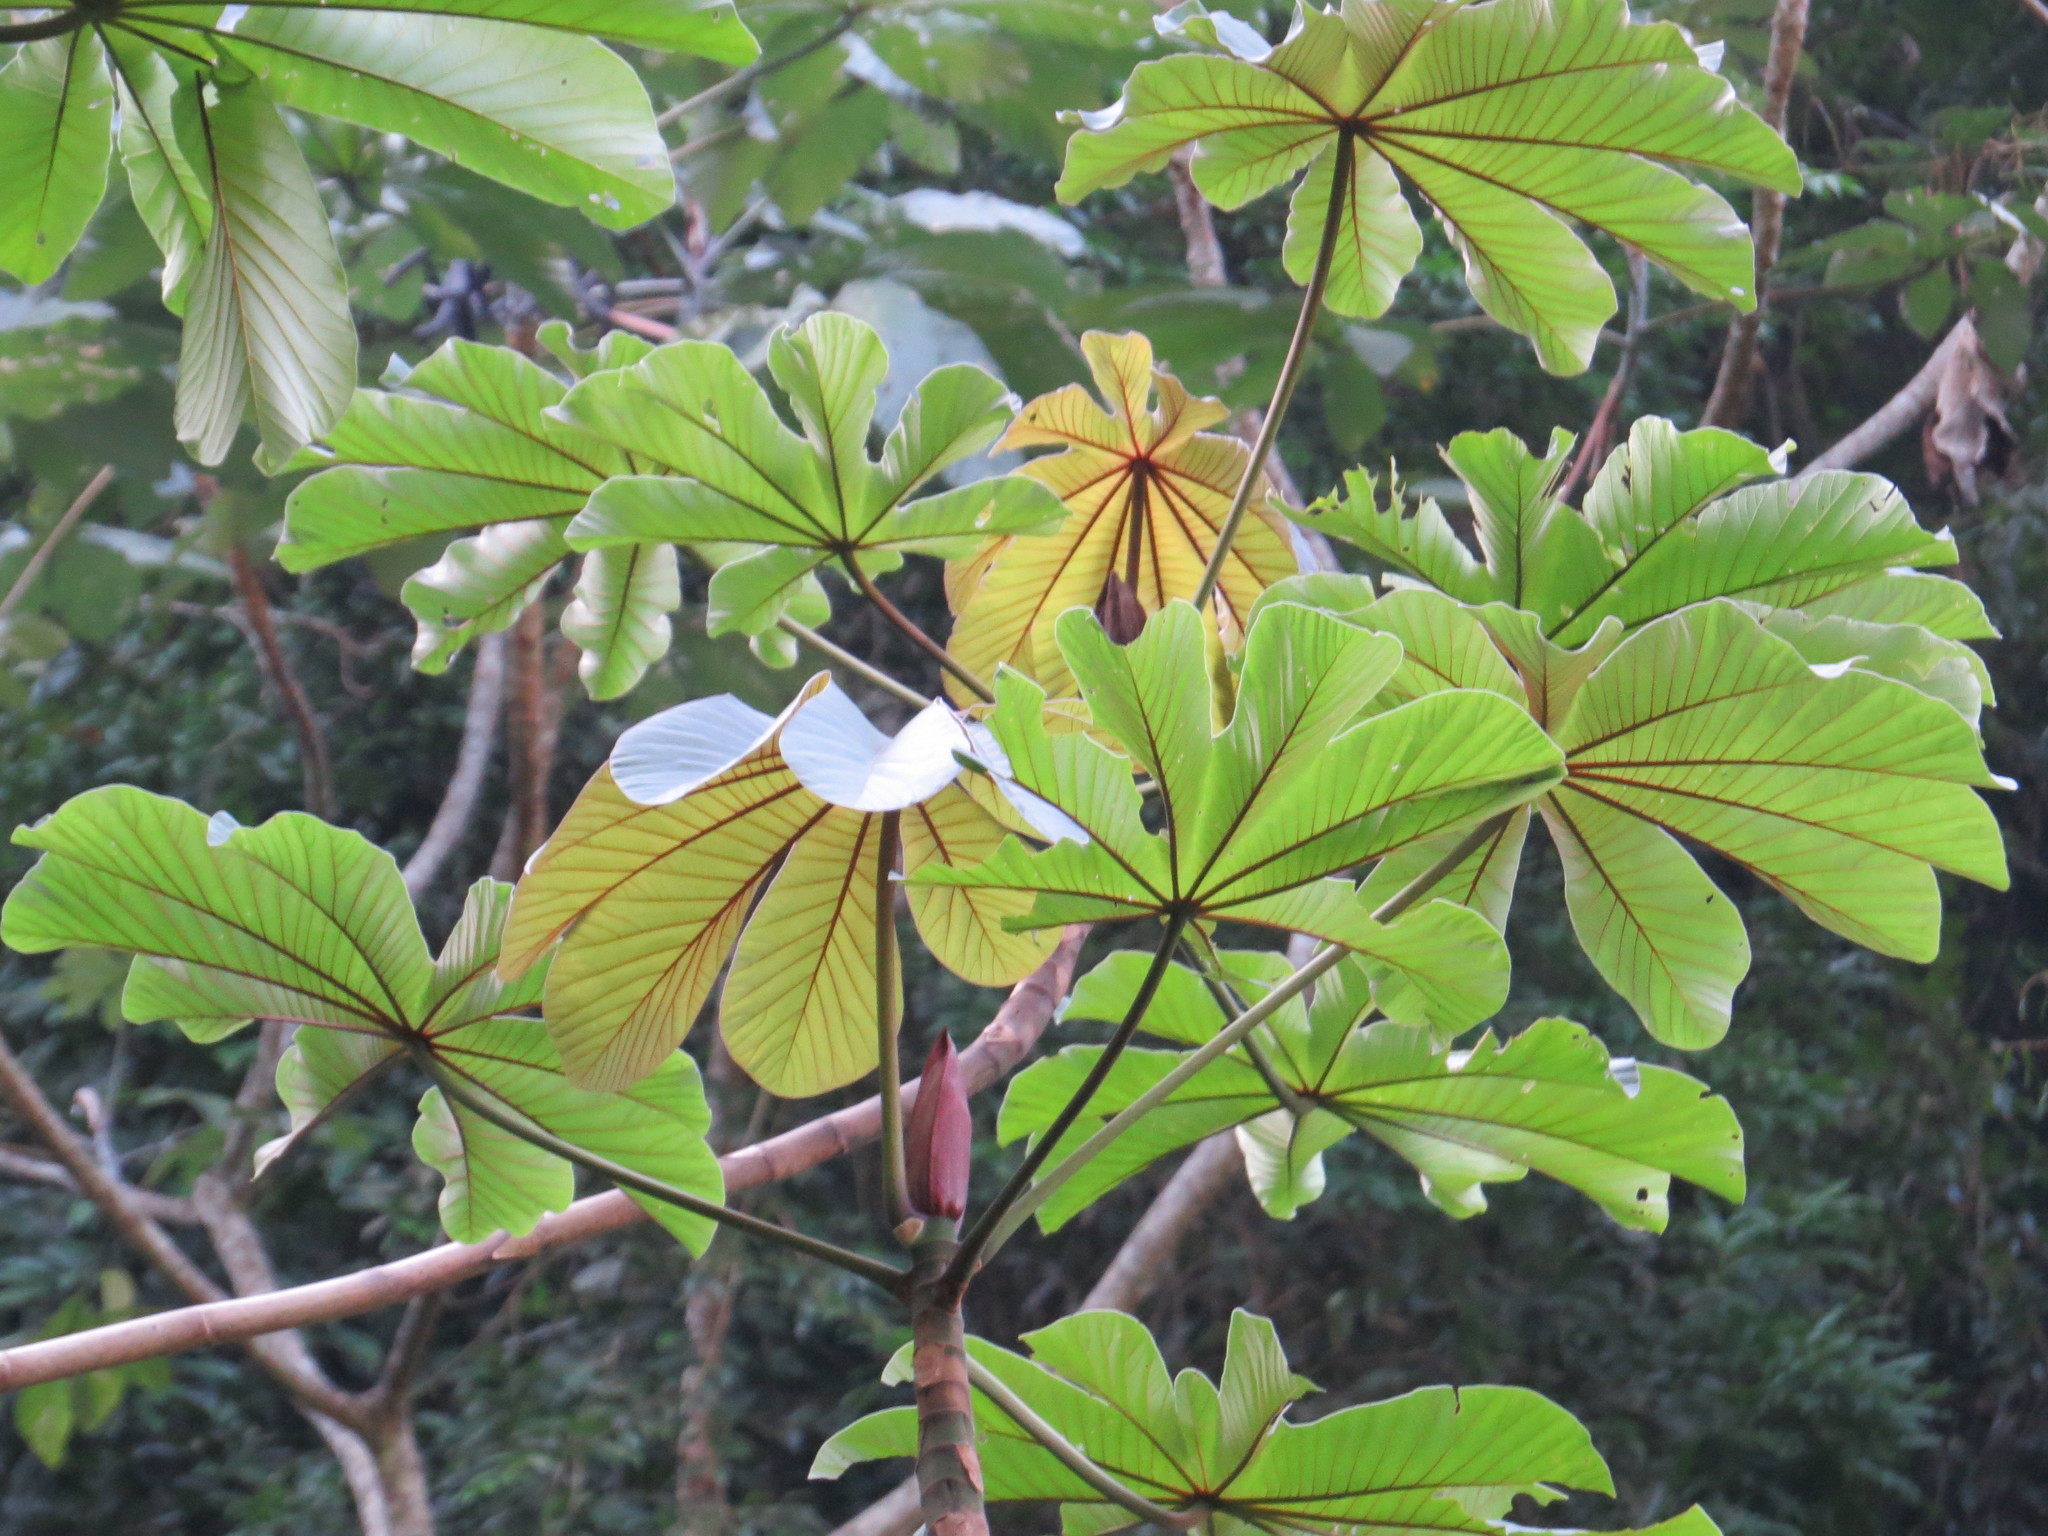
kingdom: Plantae
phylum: Tracheophyta
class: Magnoliopsida
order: Rosales
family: Urticaceae
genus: Cecropia
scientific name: Cecropia glaziovii
